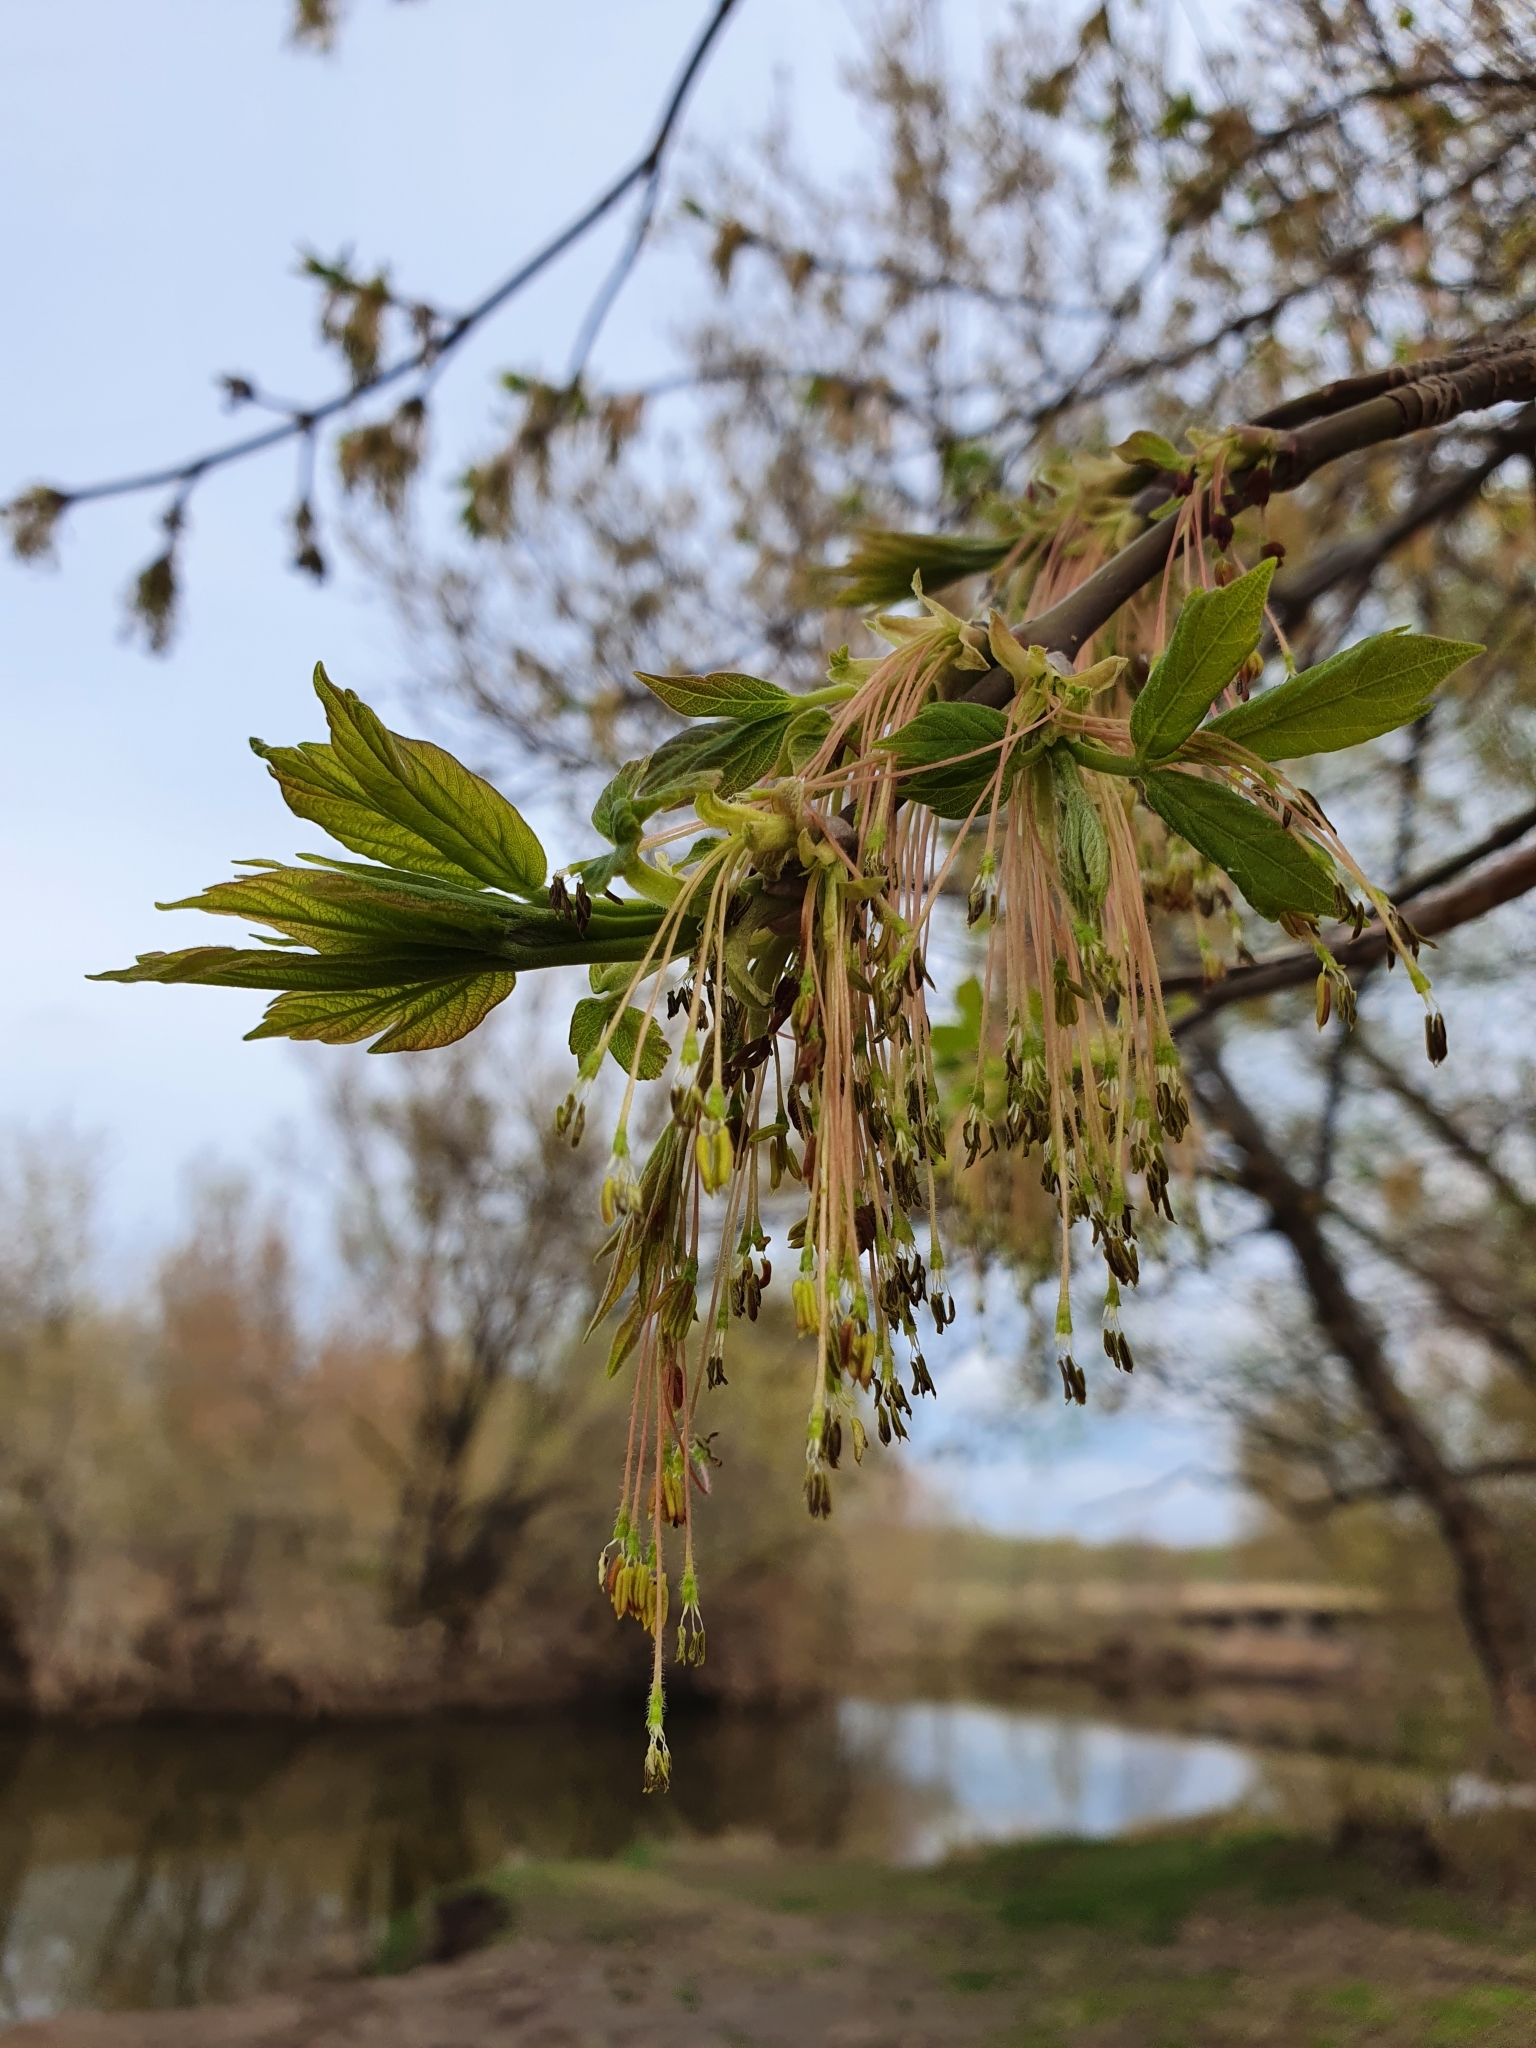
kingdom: Plantae
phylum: Tracheophyta
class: Magnoliopsida
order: Sapindales
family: Sapindaceae
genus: Acer
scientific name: Acer negundo
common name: Ashleaf maple
